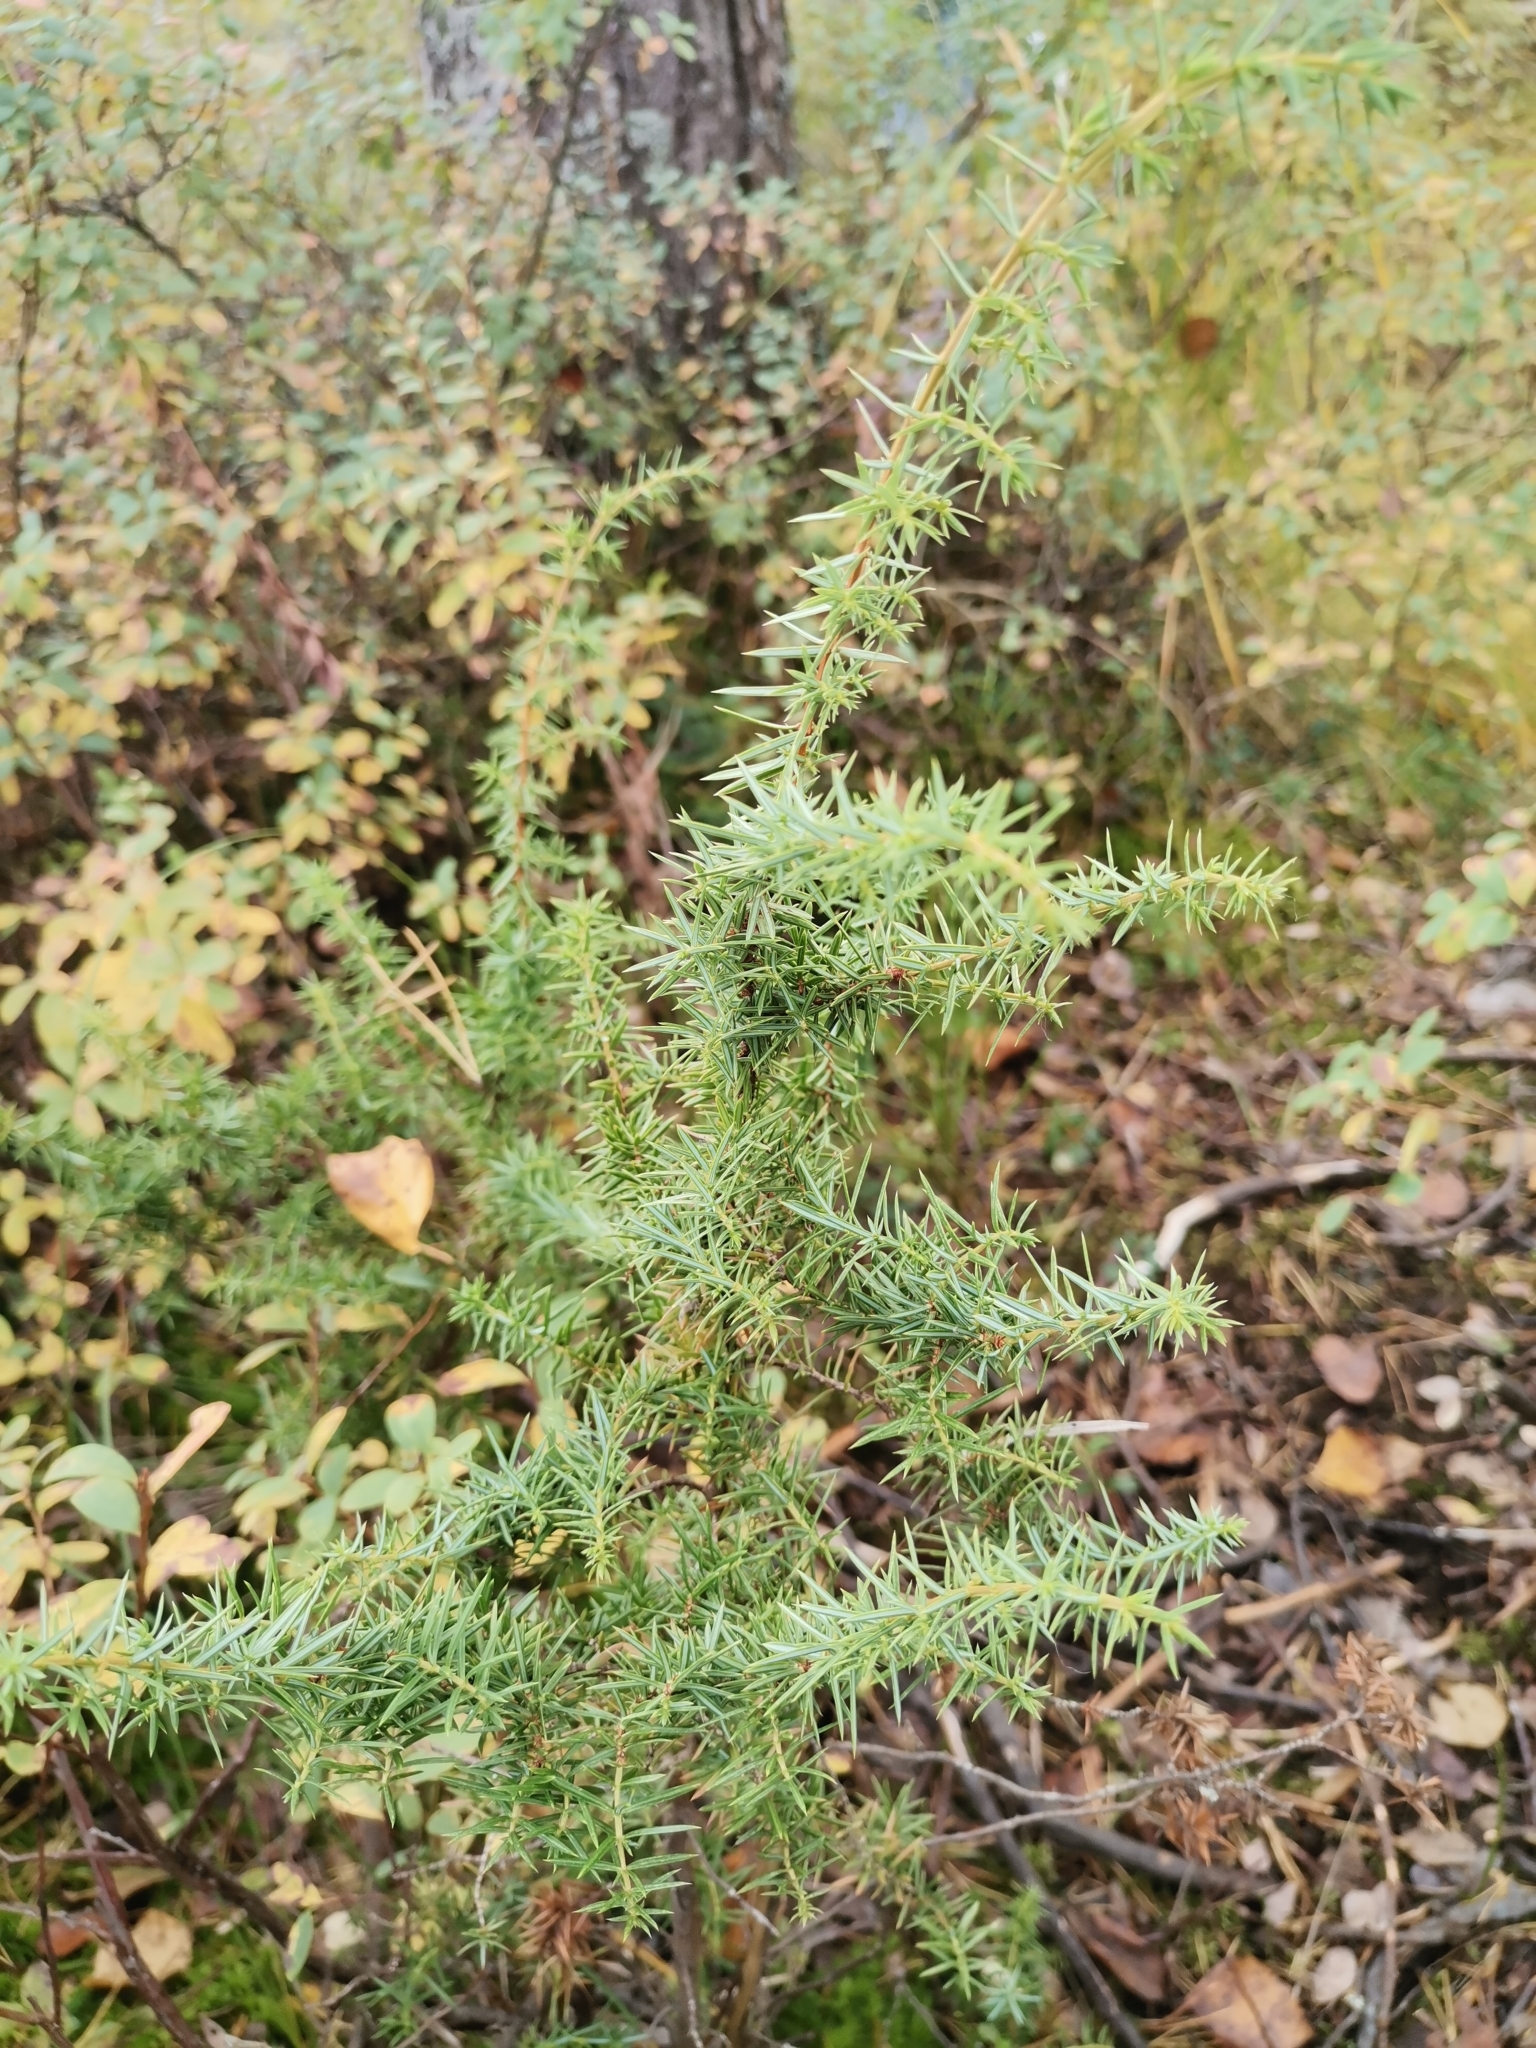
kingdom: Plantae
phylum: Tracheophyta
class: Pinopsida
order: Pinales
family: Cupressaceae
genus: Juniperus
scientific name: Juniperus communis
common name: Common juniper
